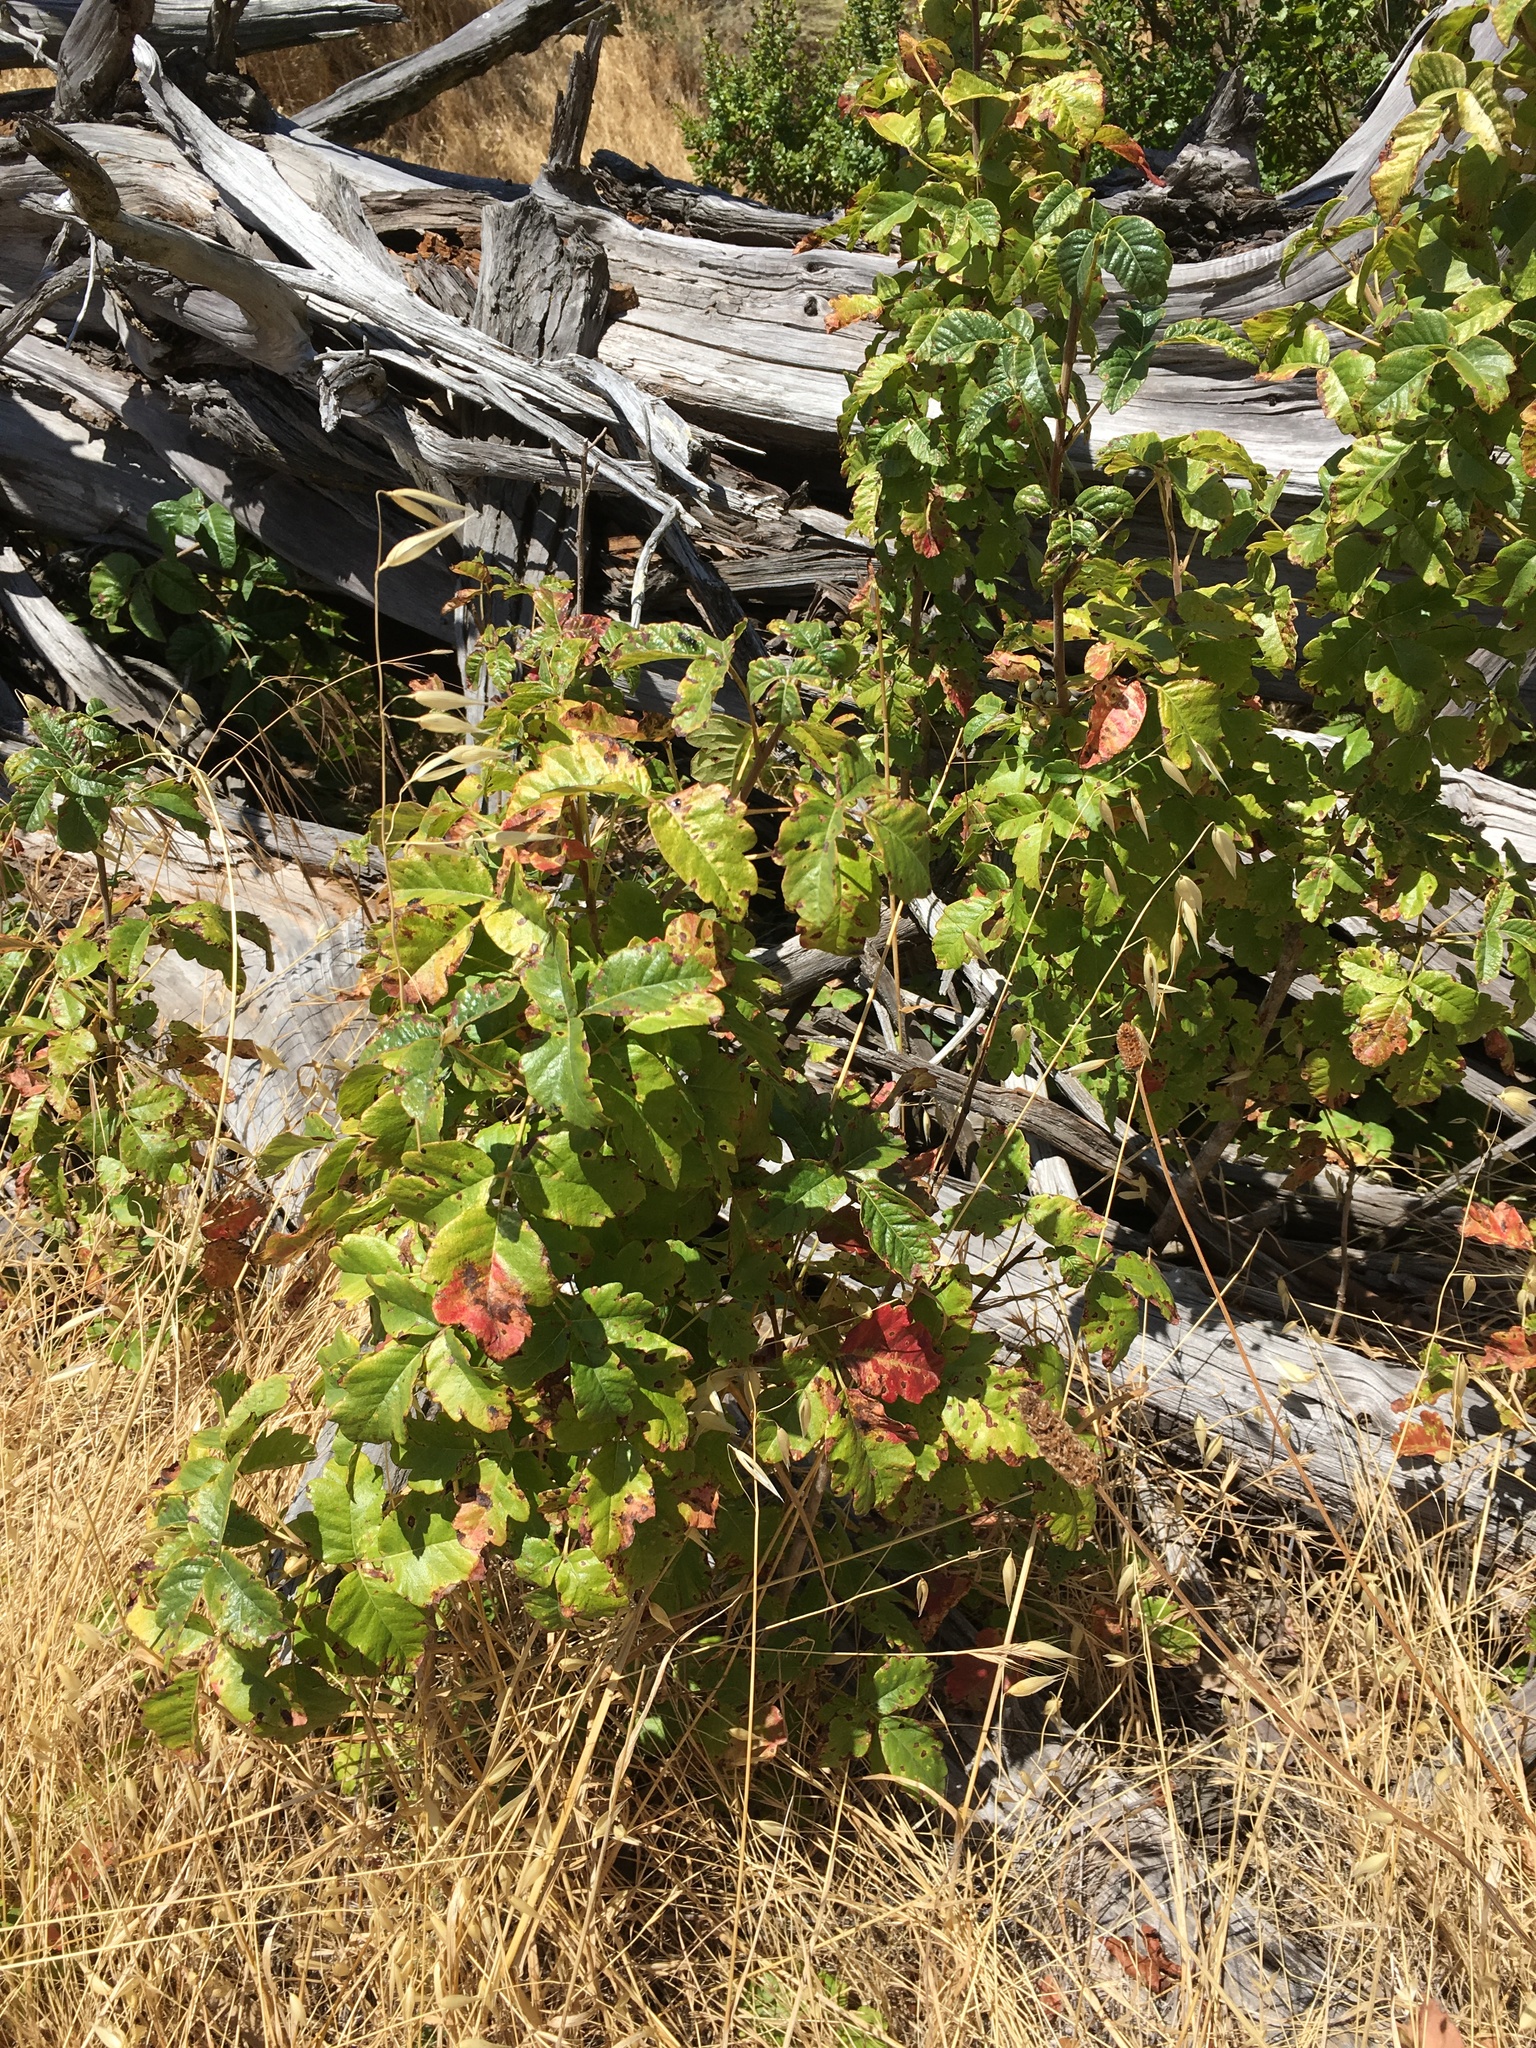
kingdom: Plantae
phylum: Tracheophyta
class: Magnoliopsida
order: Sapindales
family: Anacardiaceae
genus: Toxicodendron
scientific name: Toxicodendron diversilobum
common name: Pacific poison-oak
